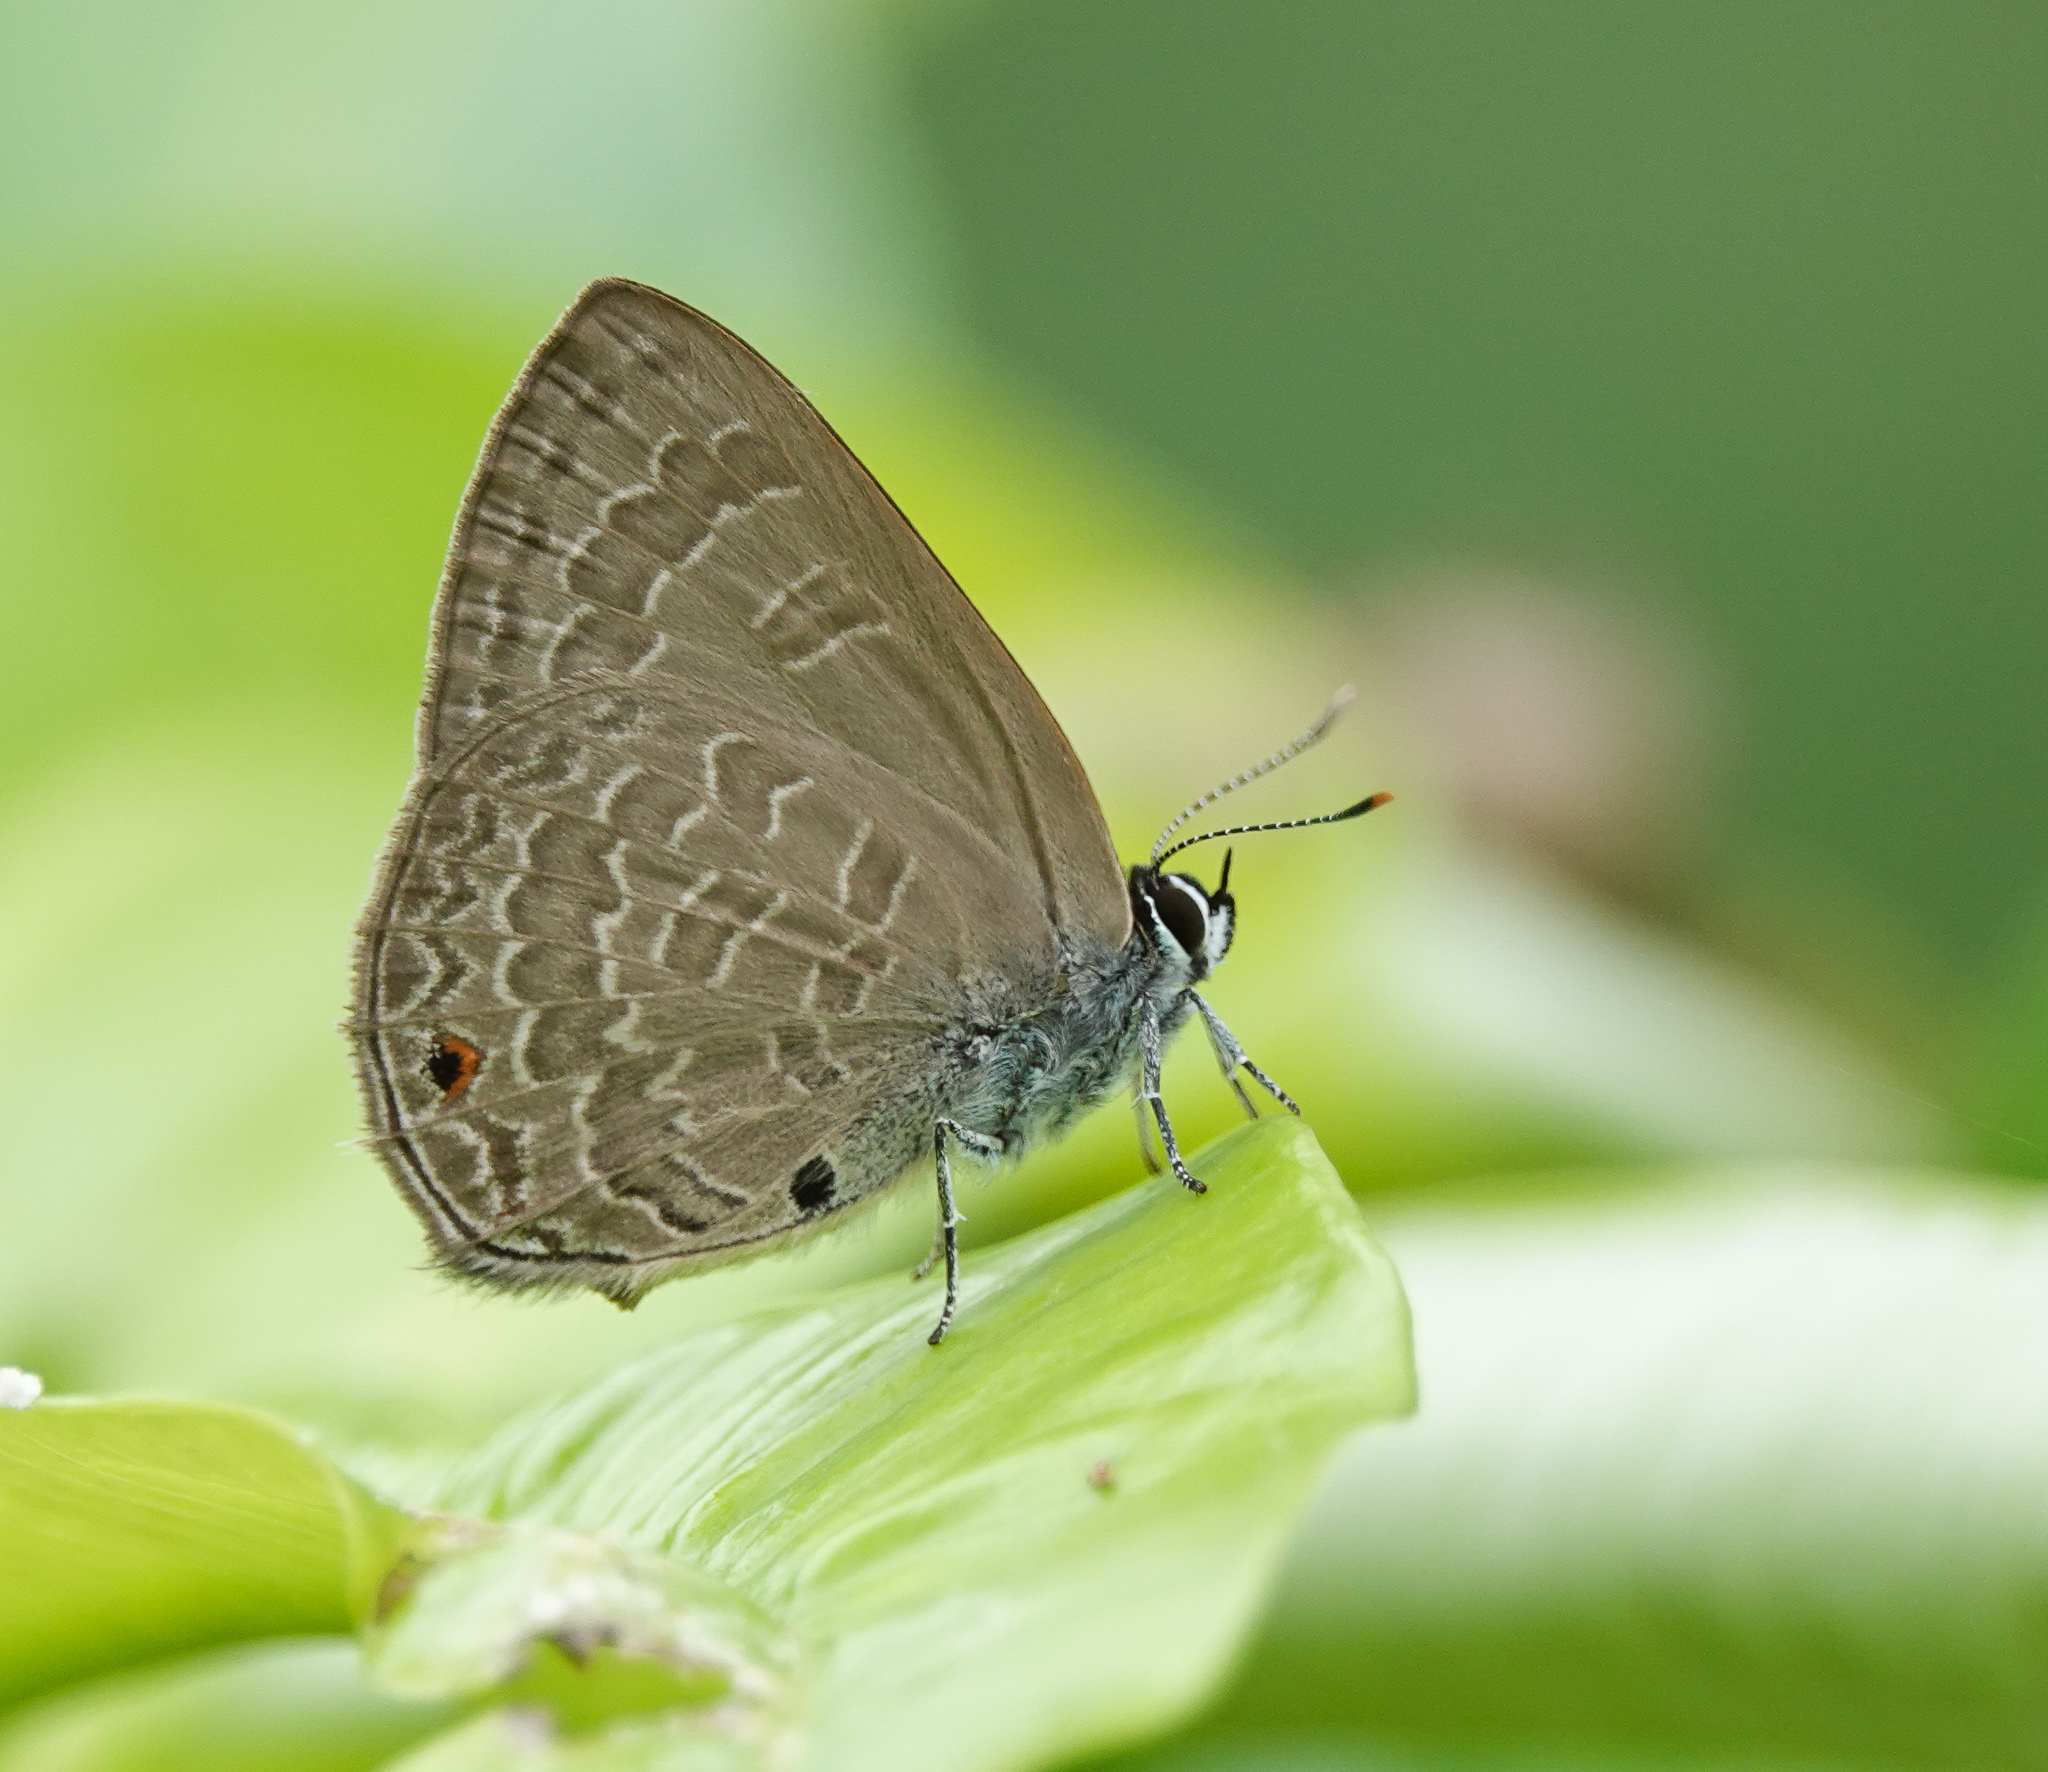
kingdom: Animalia
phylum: Arthropoda
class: Insecta
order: Lepidoptera
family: Lycaenidae
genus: Anthene
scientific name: Anthene emolus
